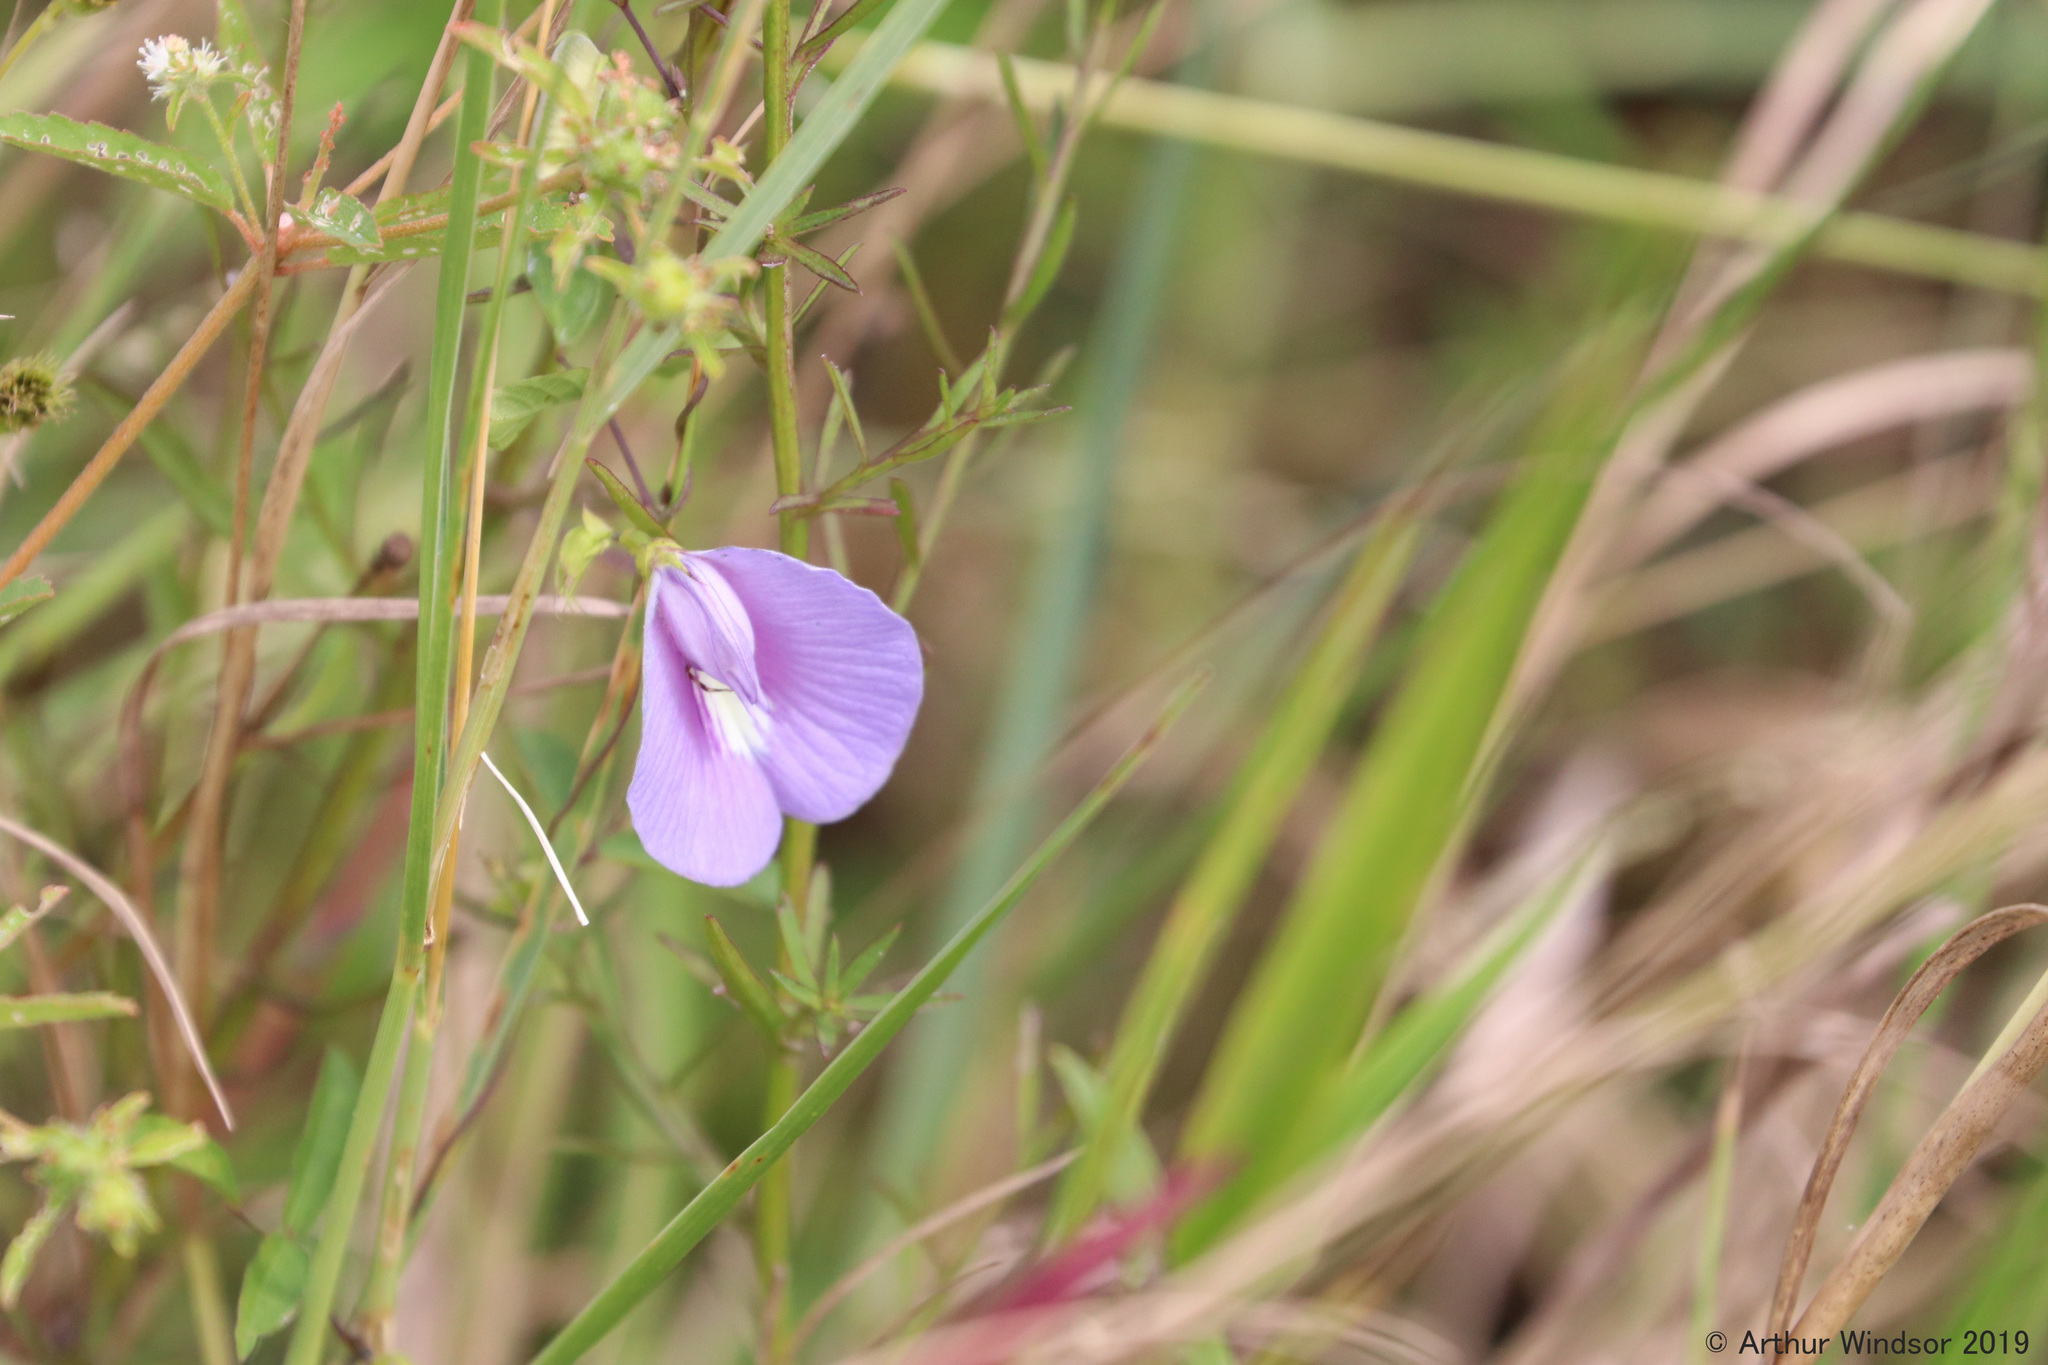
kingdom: Plantae
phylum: Tracheophyta
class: Magnoliopsida
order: Fabales
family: Fabaceae
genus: Centrosema
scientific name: Centrosema virginianum
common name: Butterfly-pea
